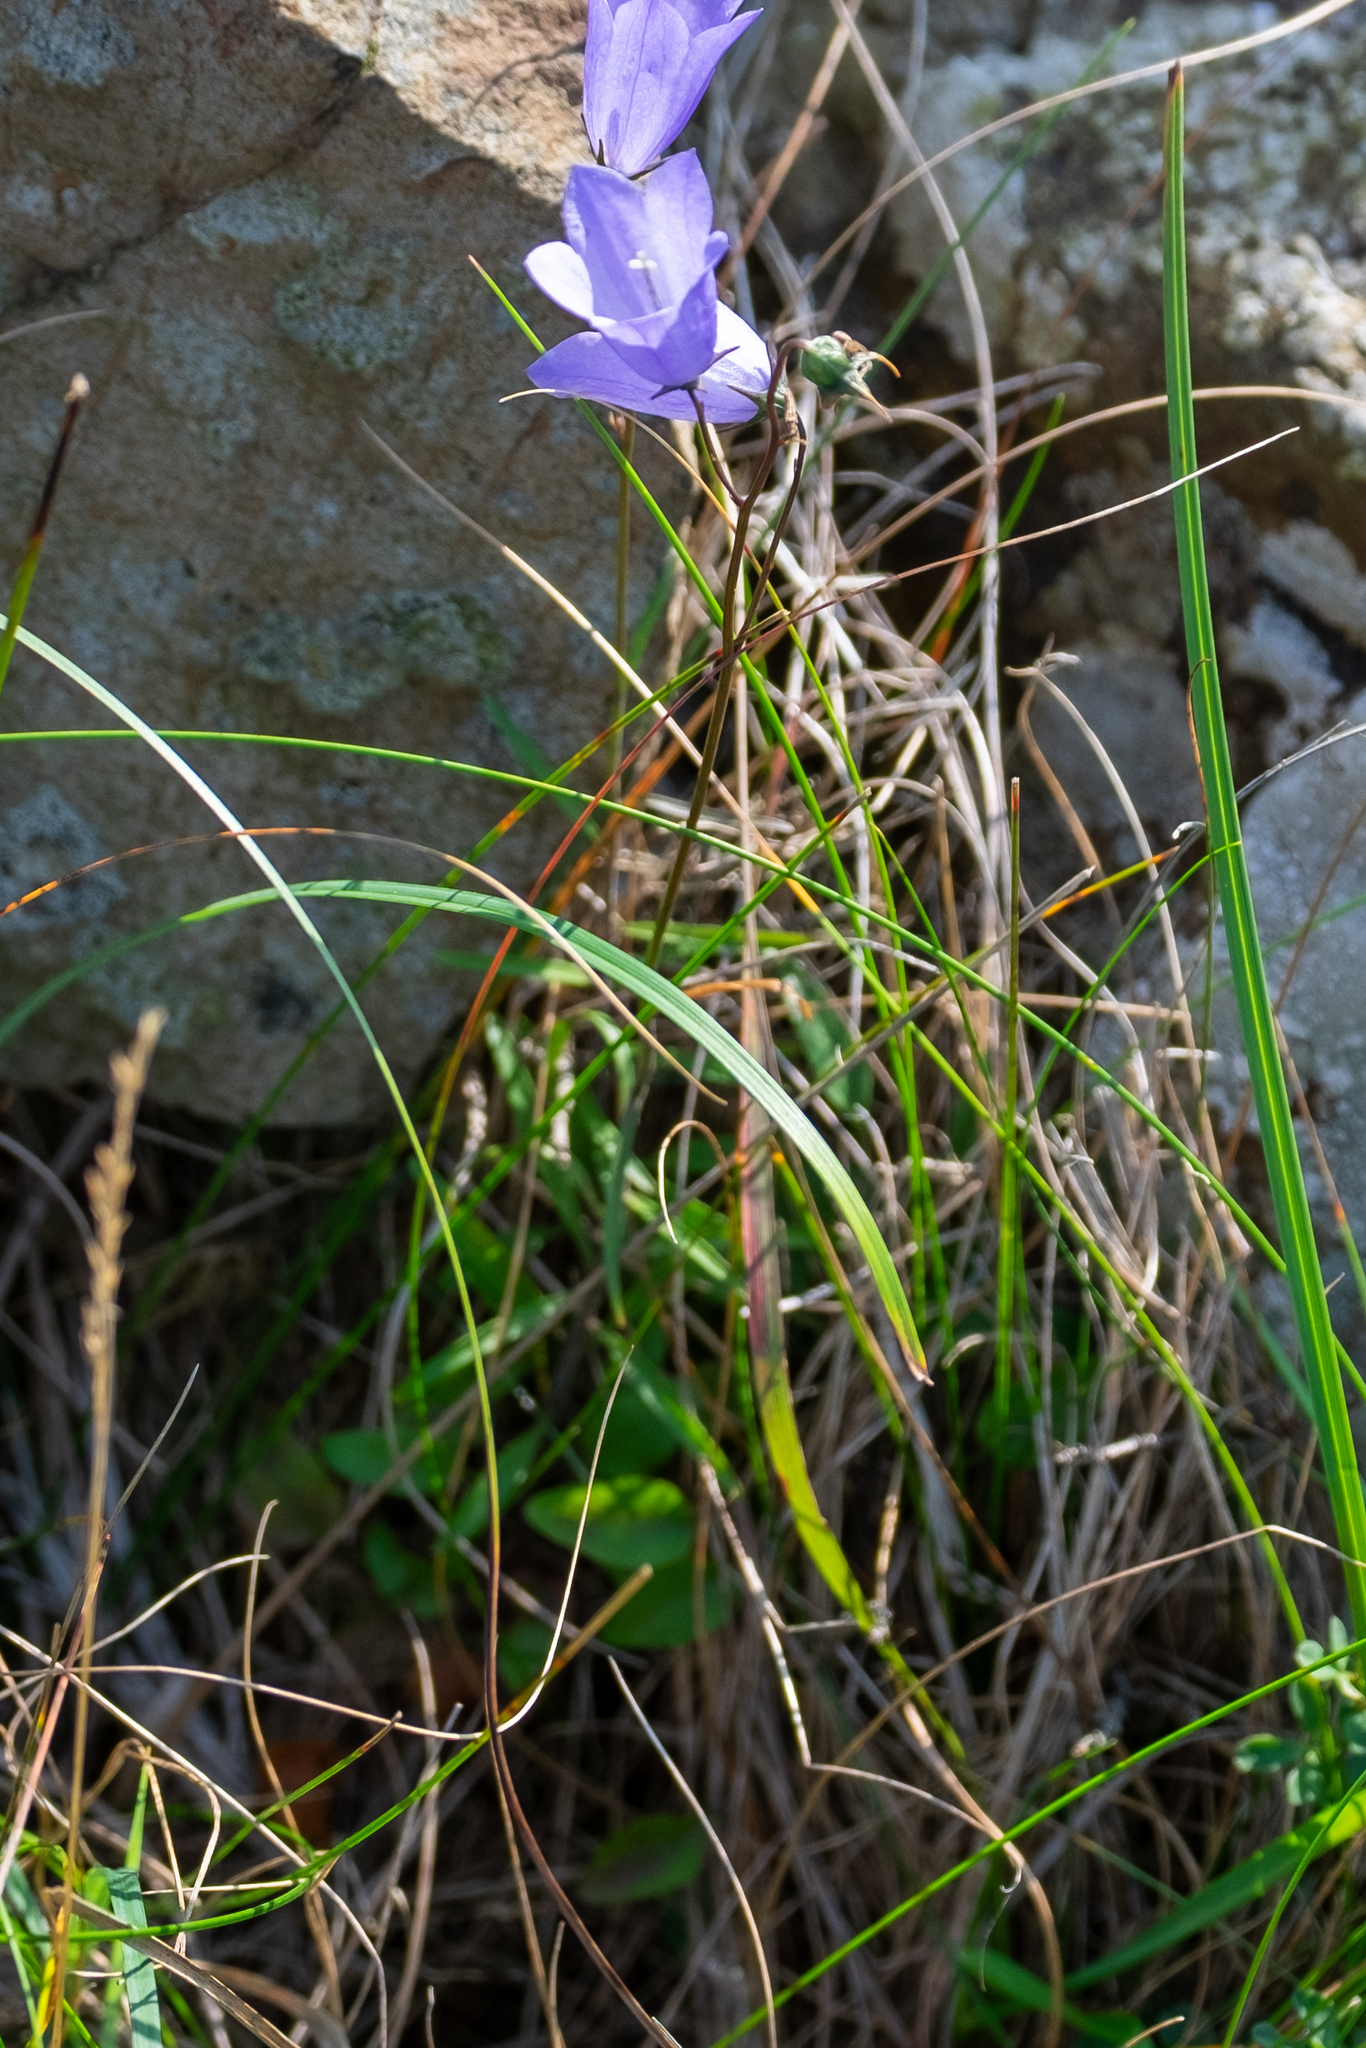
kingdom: Plantae
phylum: Tracheophyta
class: Magnoliopsida
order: Asterales
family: Campanulaceae
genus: Campanula
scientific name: Campanula rotundifolia
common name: Harebell
